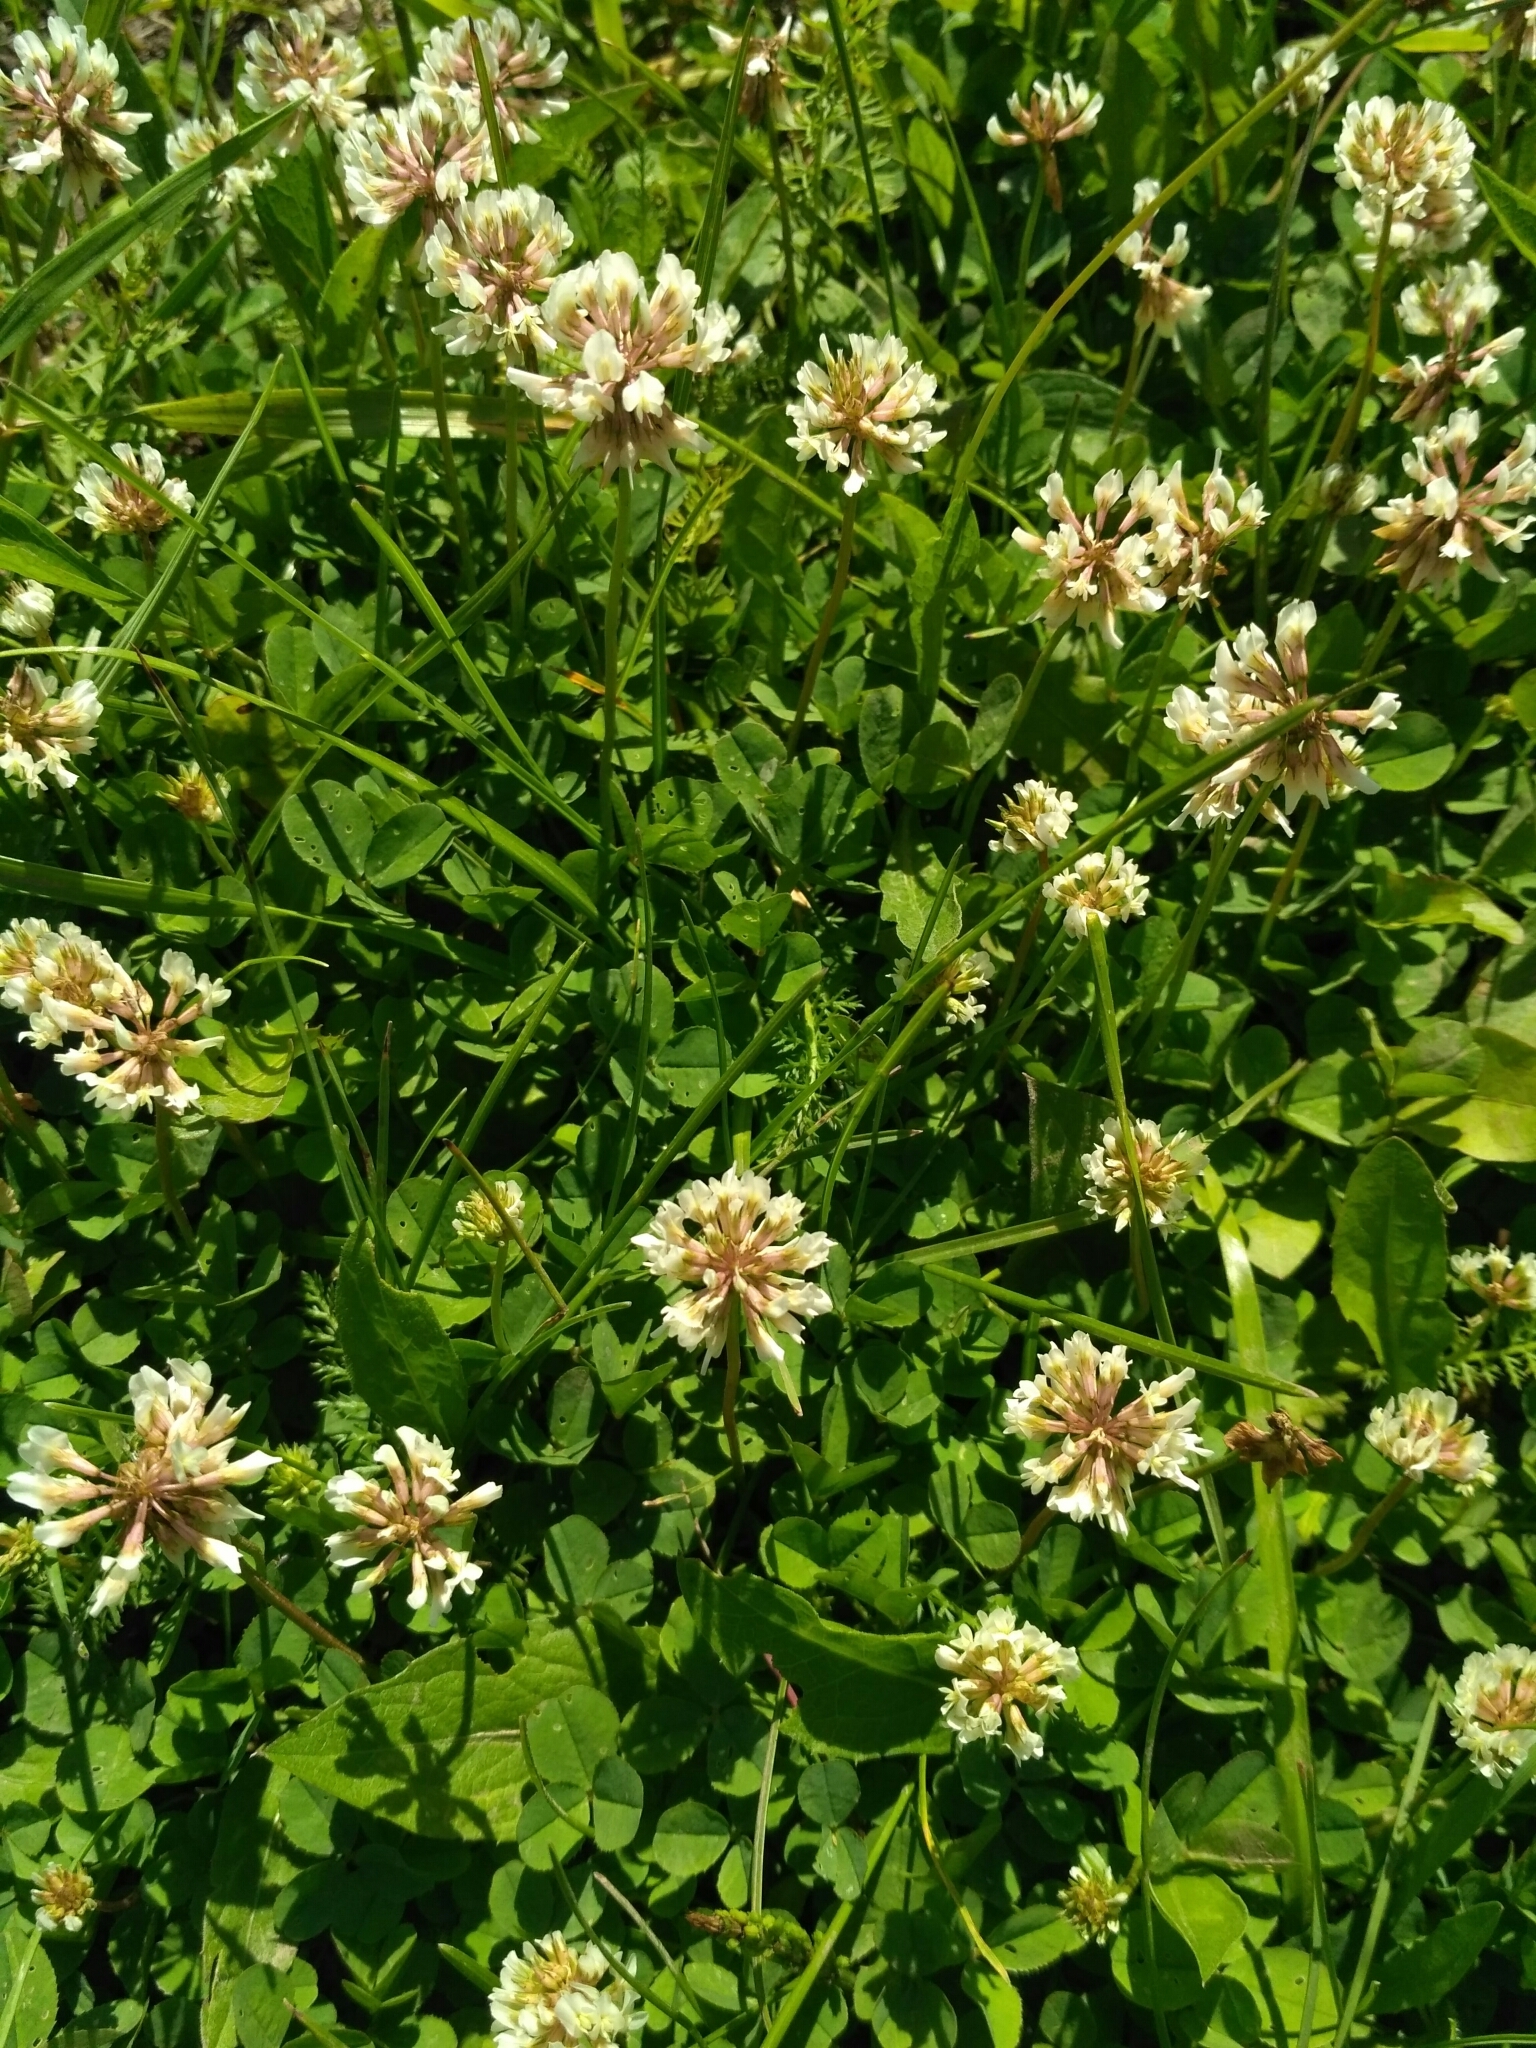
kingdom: Plantae
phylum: Tracheophyta
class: Magnoliopsida
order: Fabales
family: Fabaceae
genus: Trifolium
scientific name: Trifolium repens
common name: White clover
